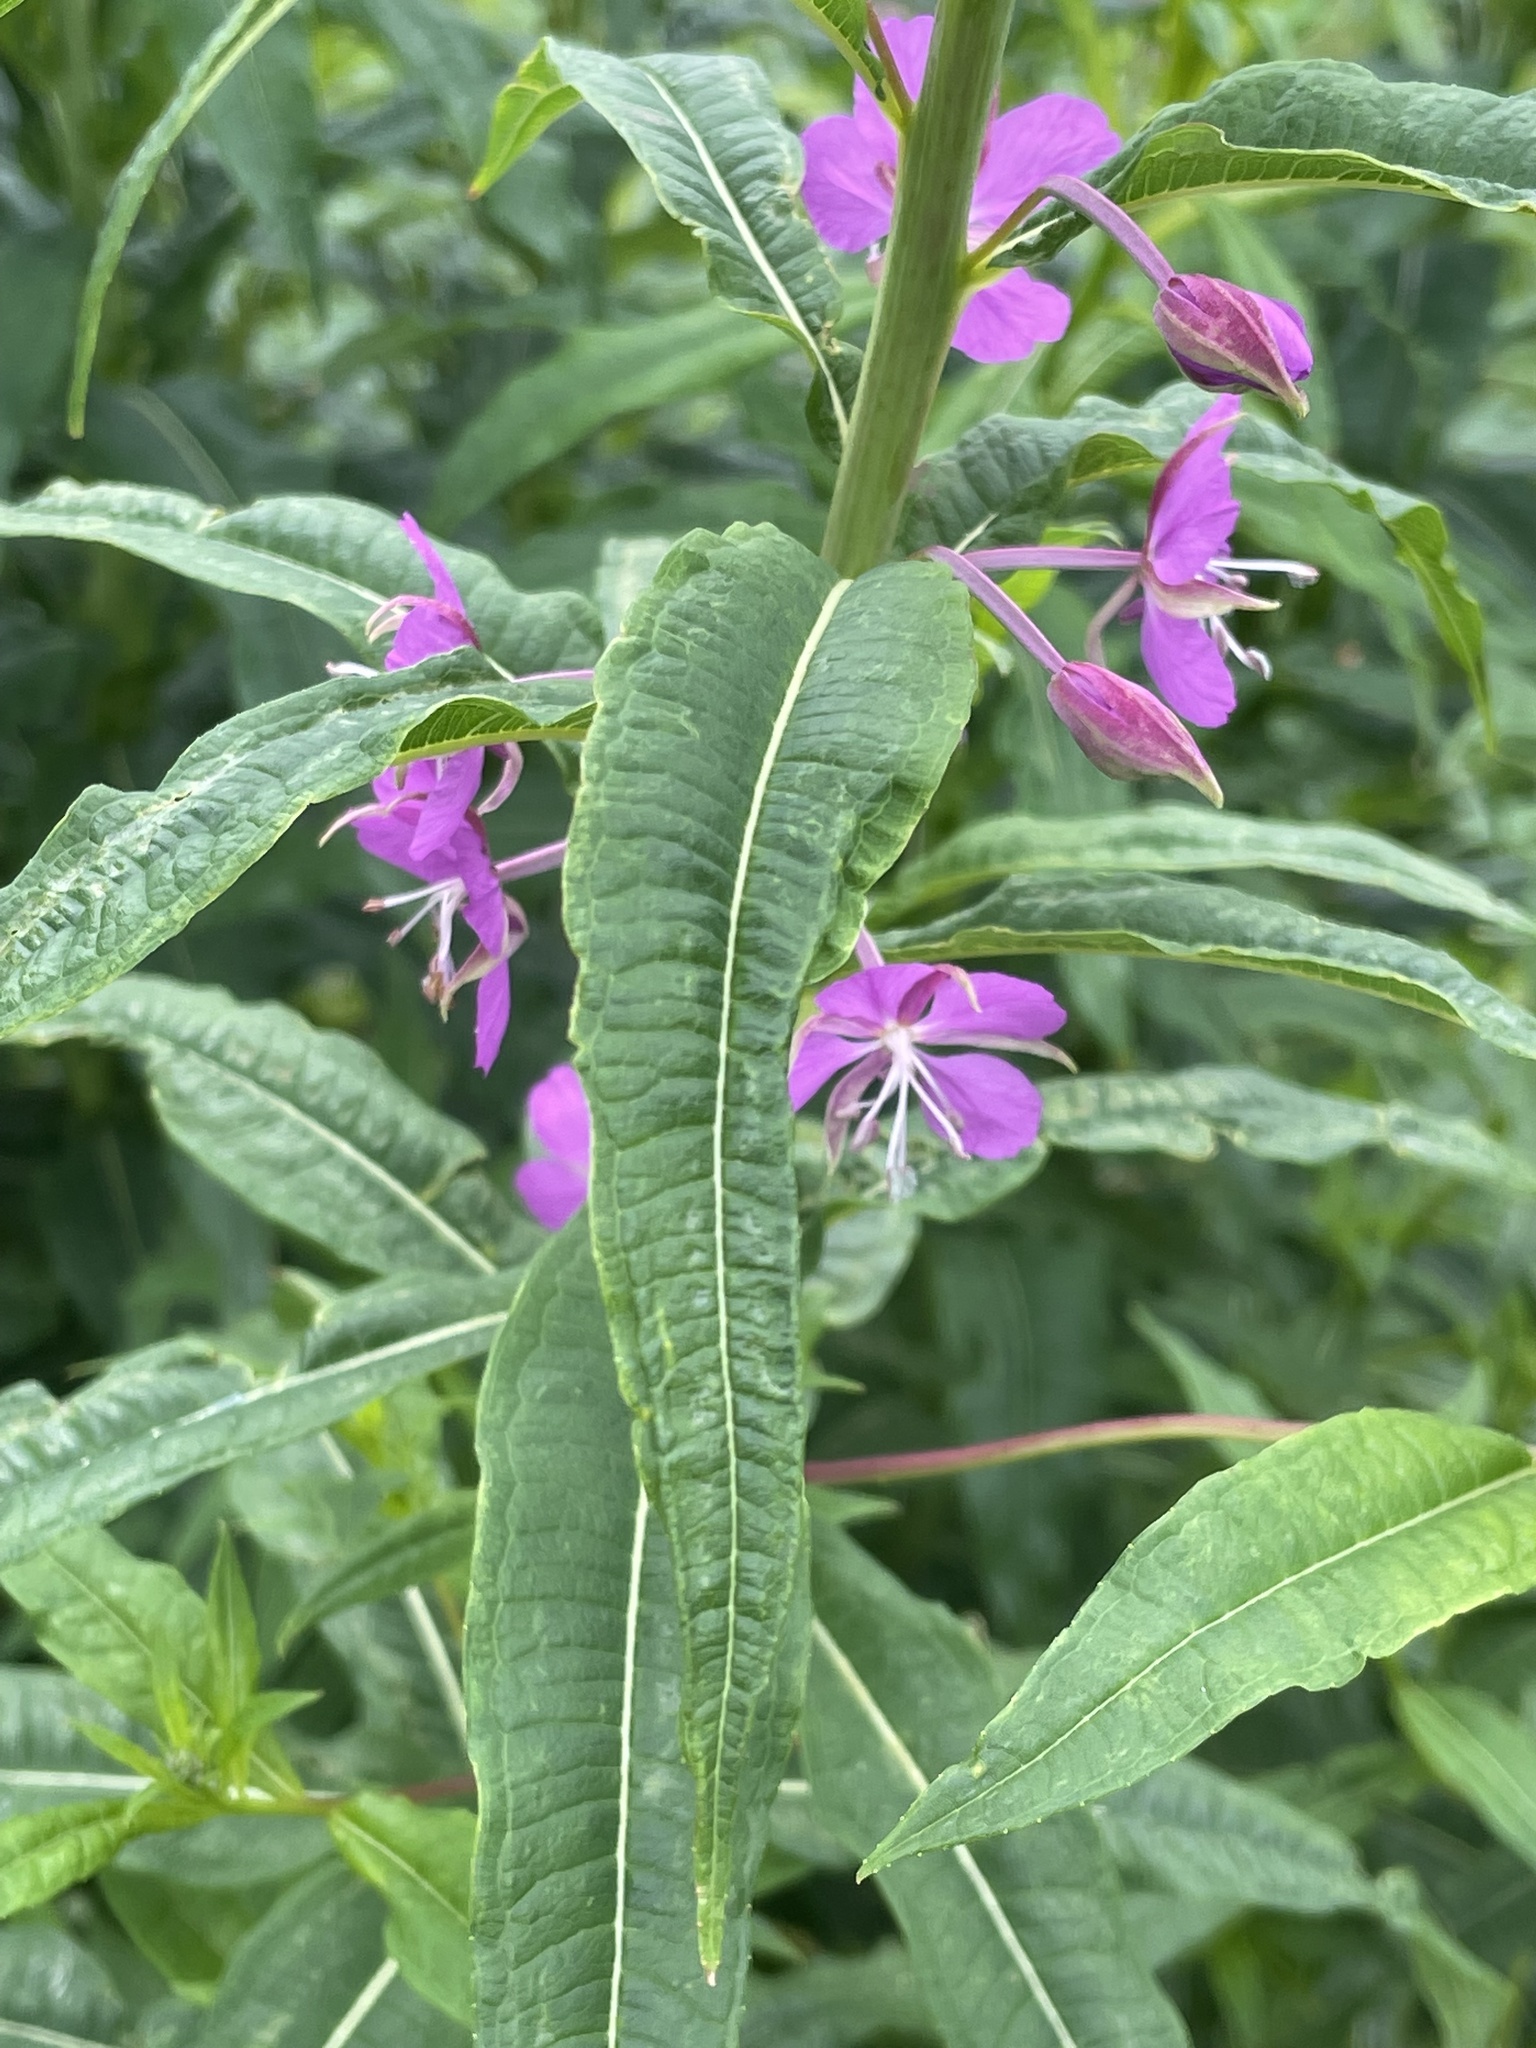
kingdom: Plantae
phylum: Tracheophyta
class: Magnoliopsida
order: Myrtales
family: Onagraceae
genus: Chamaenerion
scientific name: Chamaenerion angustifolium
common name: Fireweed
